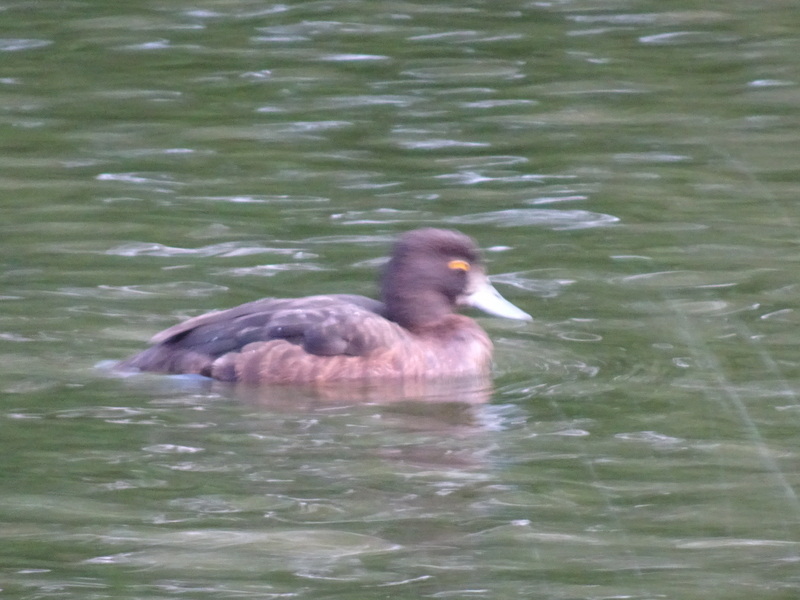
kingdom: Animalia
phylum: Chordata
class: Aves
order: Anseriformes
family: Anatidae
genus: Aythya
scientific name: Aythya fuligula
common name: Tufted duck
